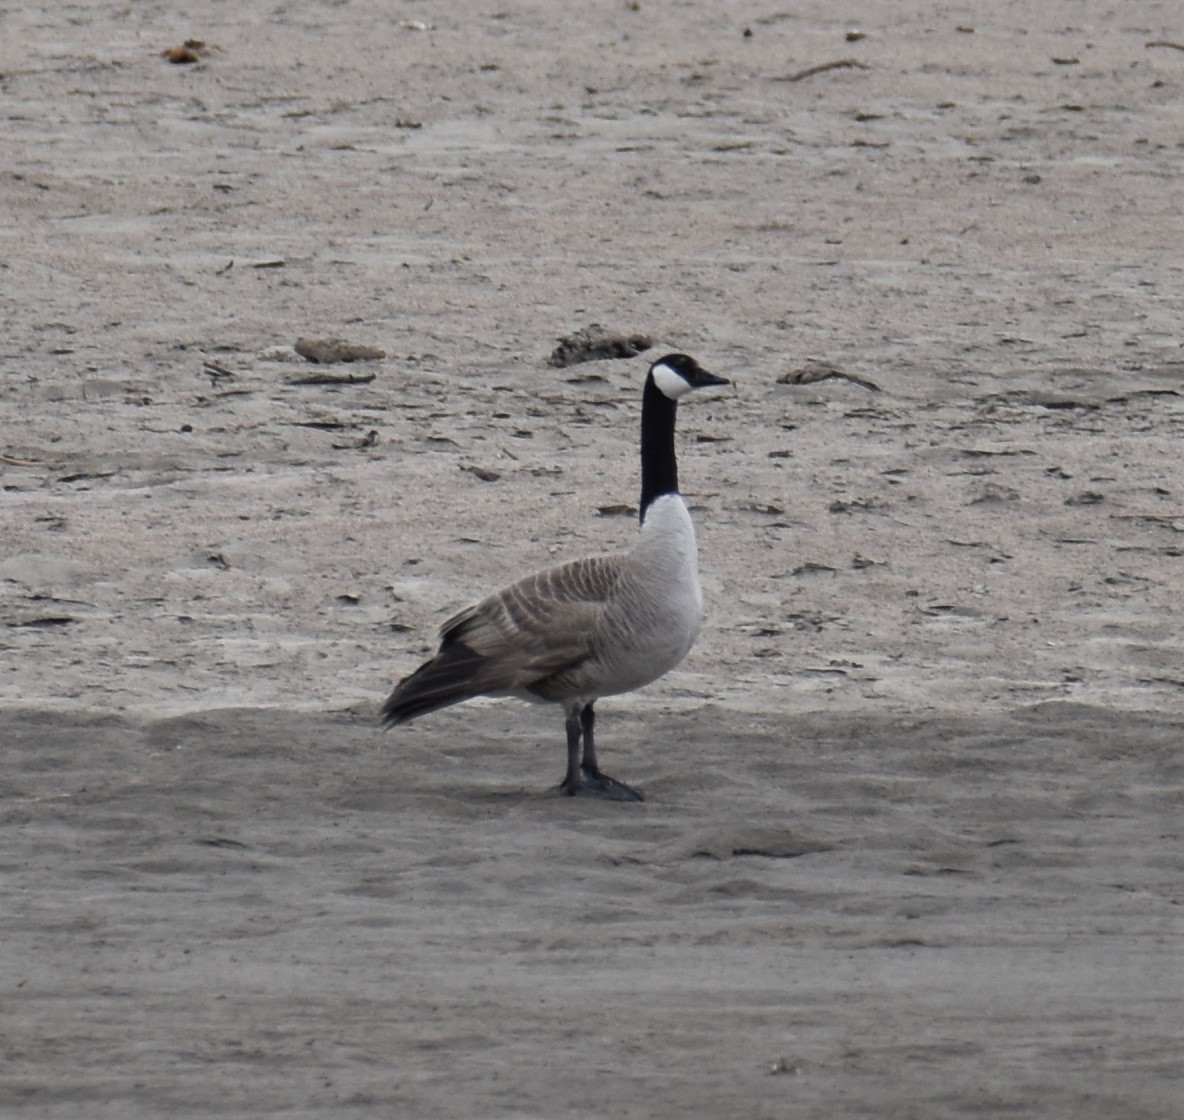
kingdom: Animalia
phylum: Chordata
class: Aves
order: Anseriformes
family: Anatidae
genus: Branta
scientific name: Branta canadensis
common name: Canada goose
